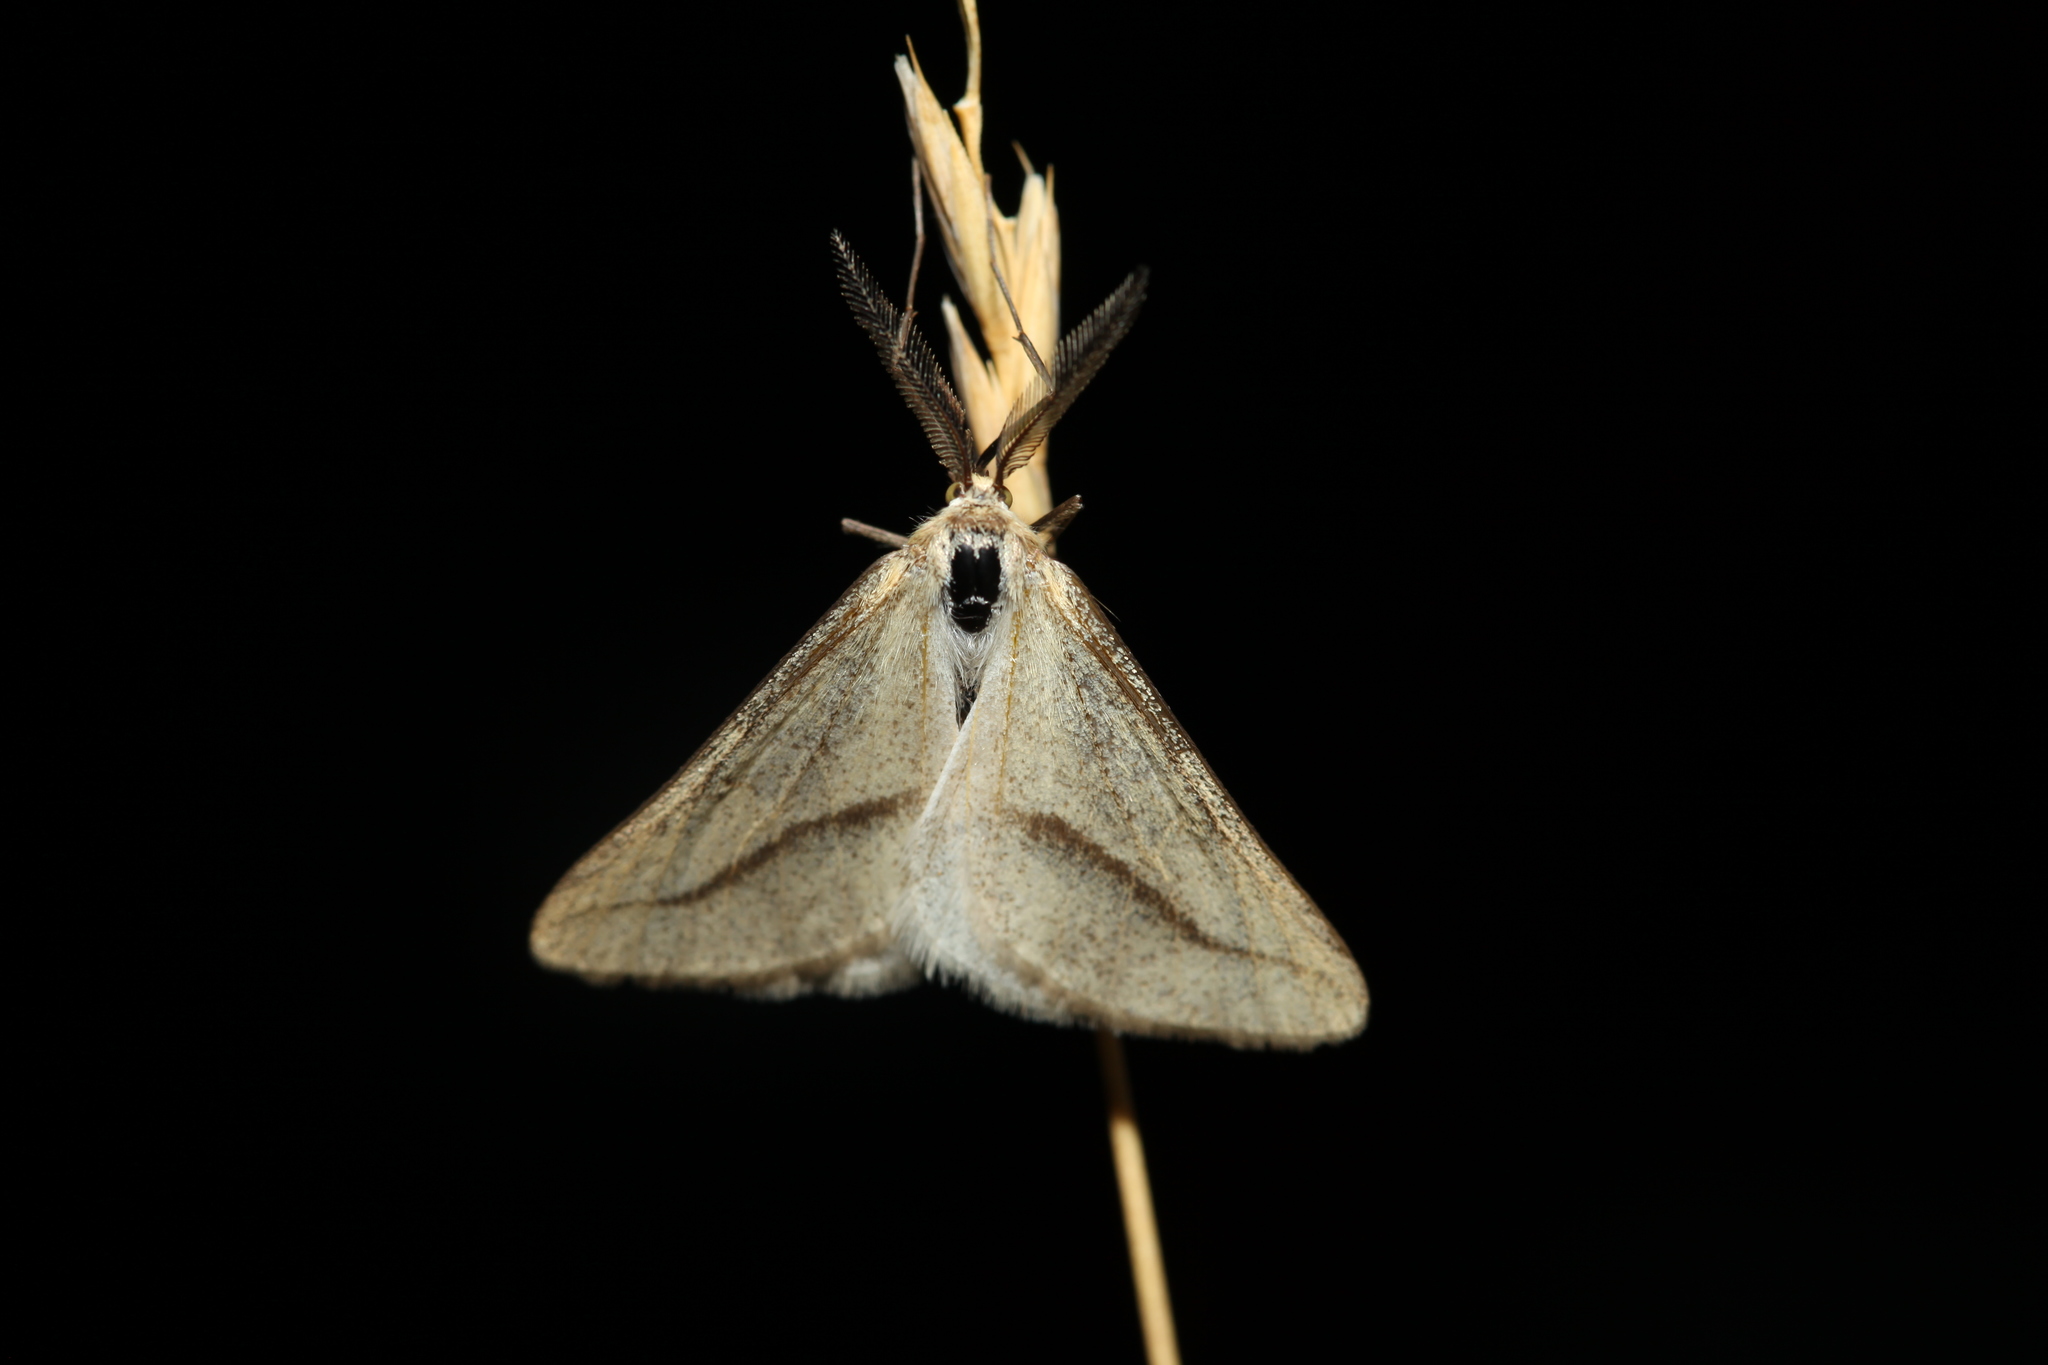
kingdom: Animalia
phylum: Arthropoda
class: Insecta
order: Lepidoptera
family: Geometridae
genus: Aspitates
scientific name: Aspitates albaria
